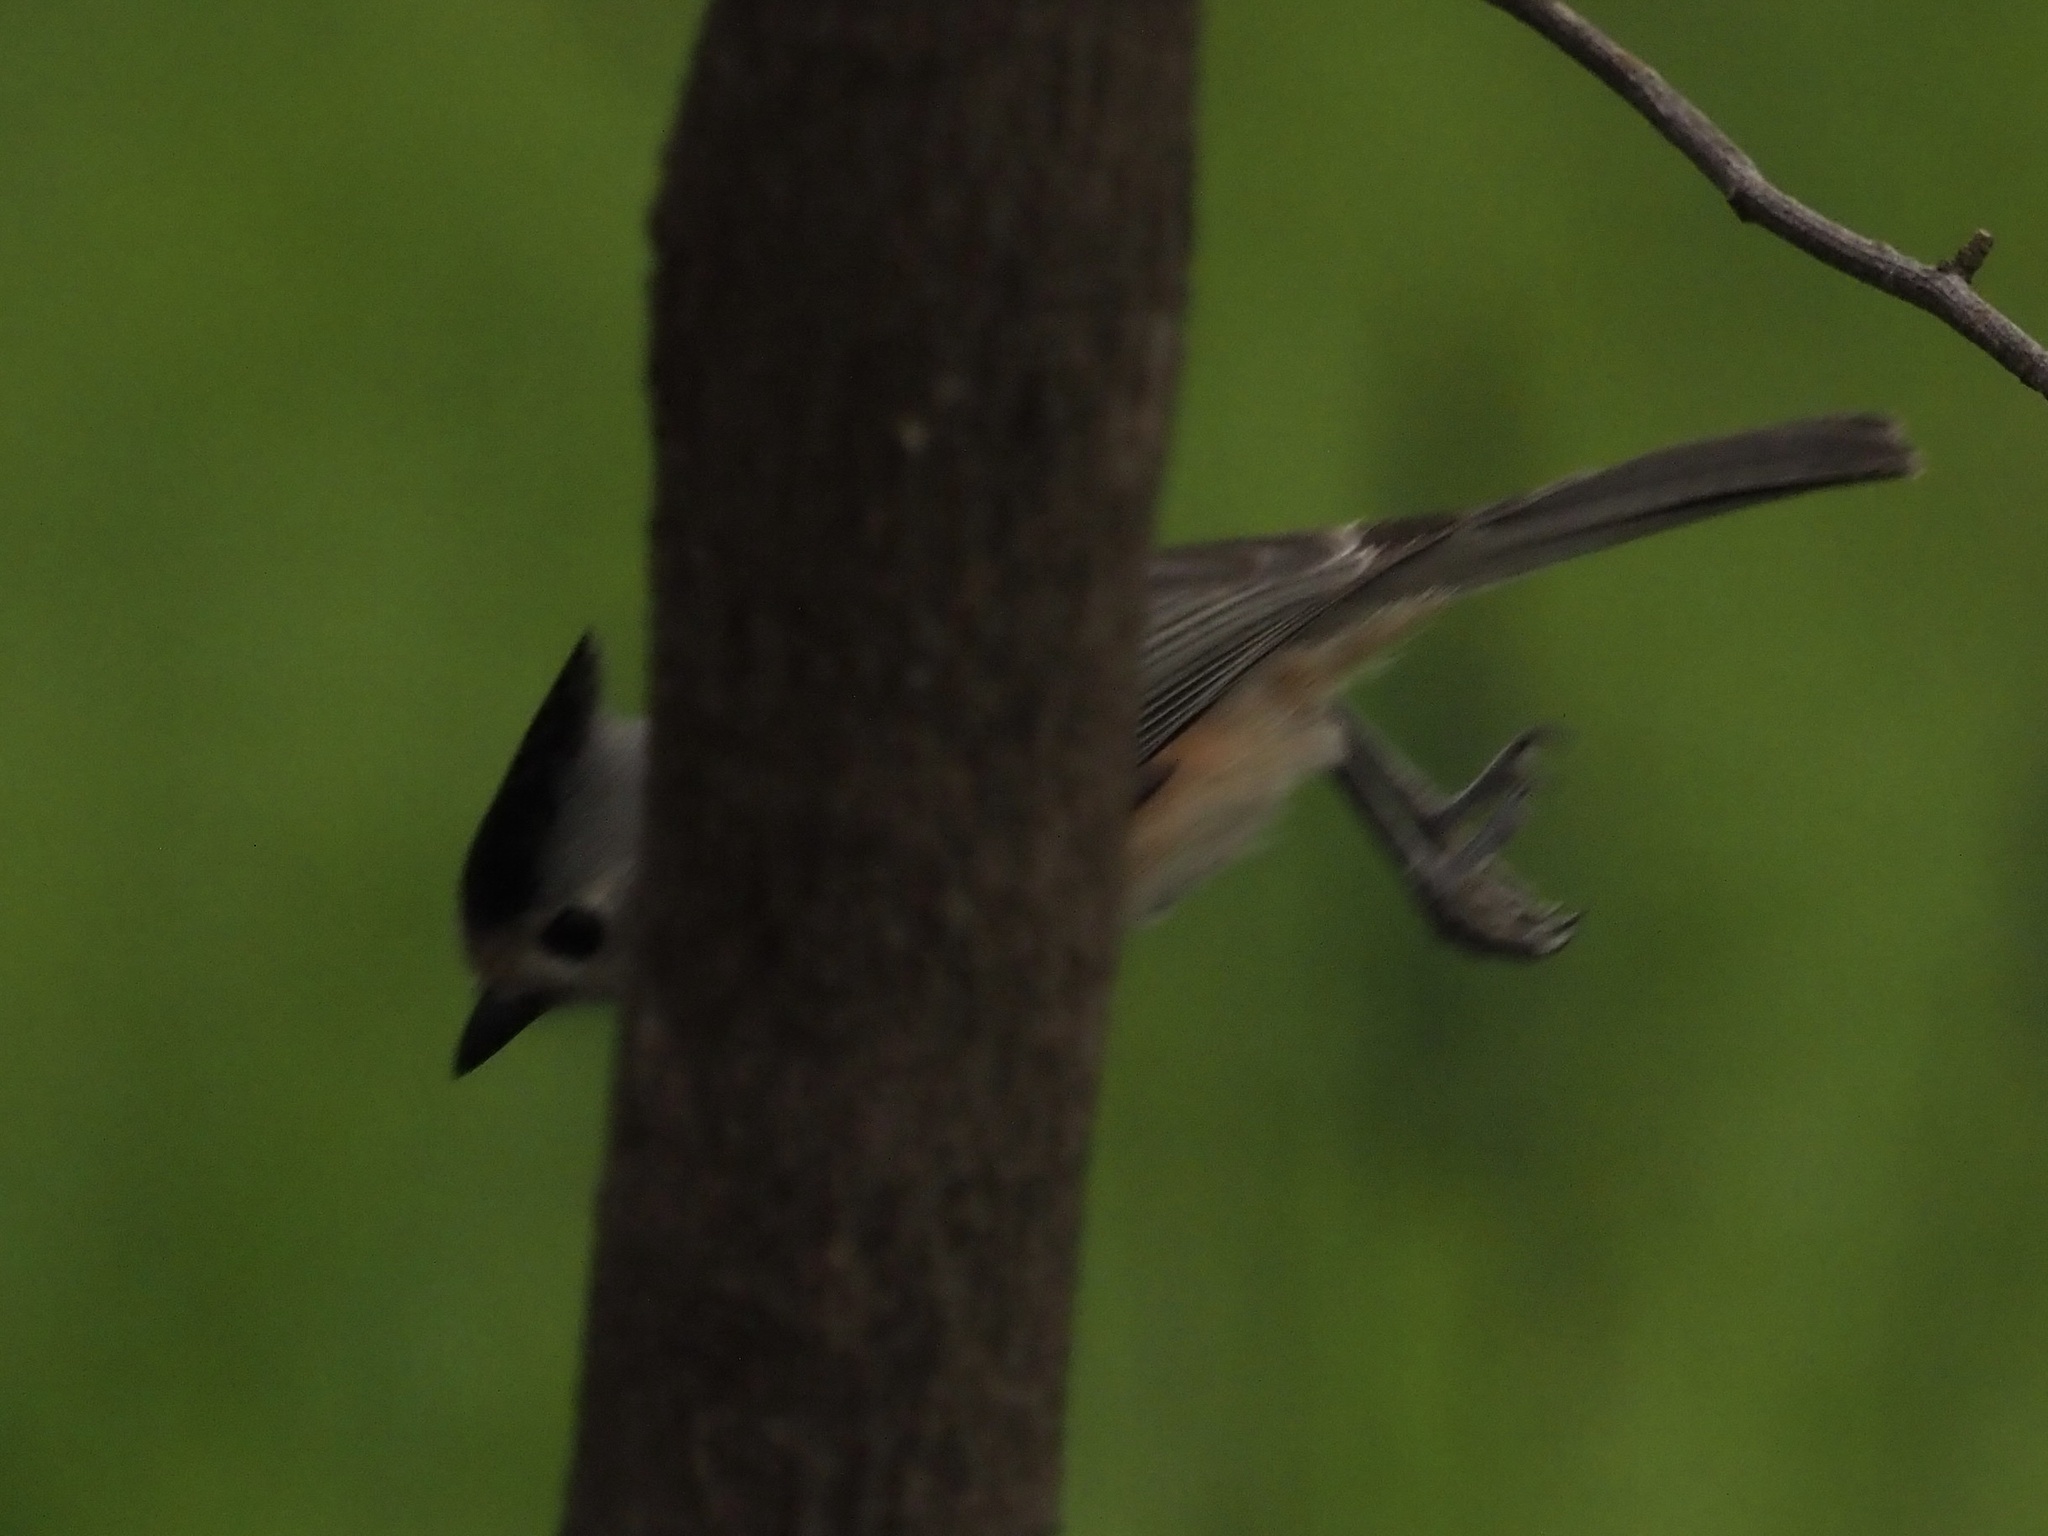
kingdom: Animalia
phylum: Chordata
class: Aves
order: Passeriformes
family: Paridae
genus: Baeolophus
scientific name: Baeolophus atricristatus
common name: Black-crested titmouse
